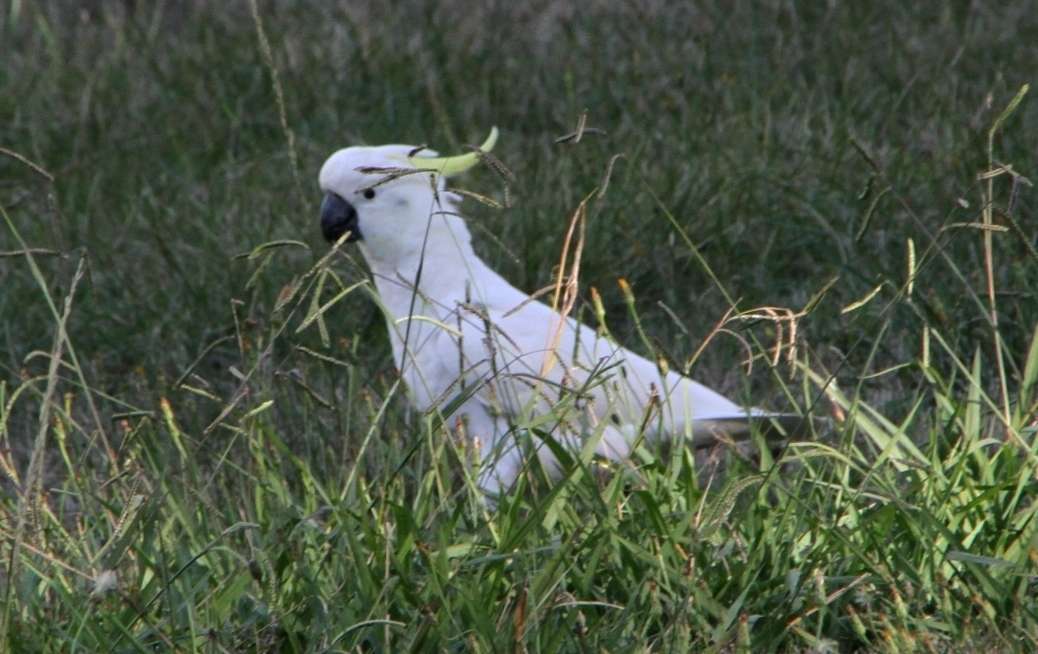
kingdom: Animalia
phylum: Chordata
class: Aves
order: Psittaciformes
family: Psittacidae
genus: Cacatua
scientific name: Cacatua galerita
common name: Sulphur-crested cockatoo
